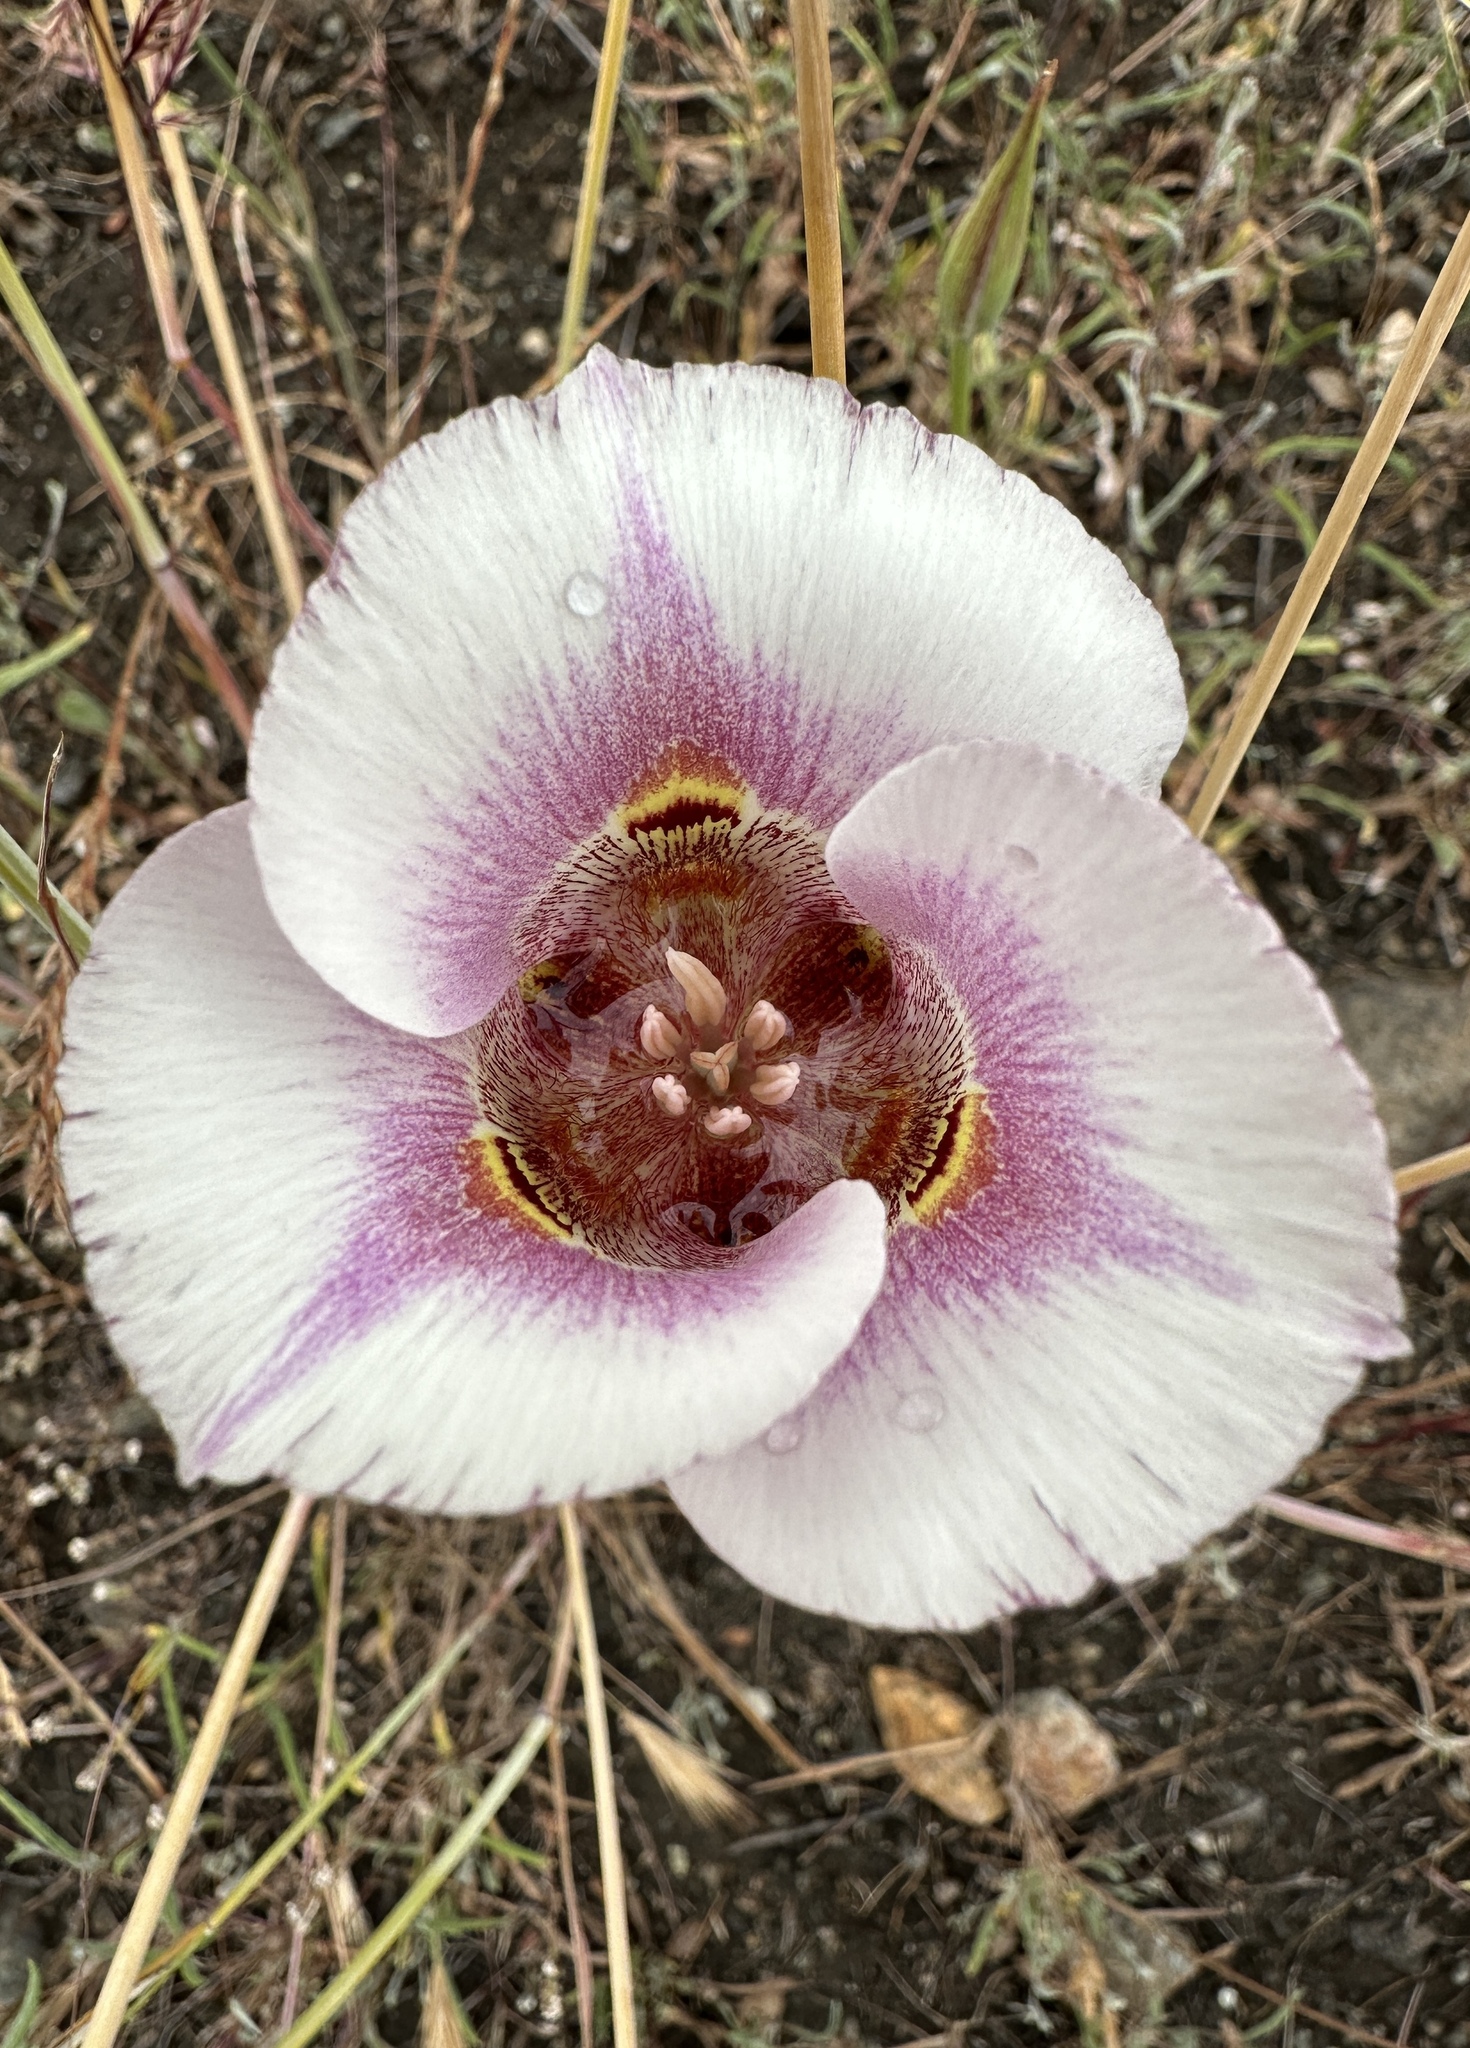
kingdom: Plantae
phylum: Tracheophyta
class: Liliopsida
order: Liliales
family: Liliaceae
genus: Calochortus
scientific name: Calochortus argillosus
